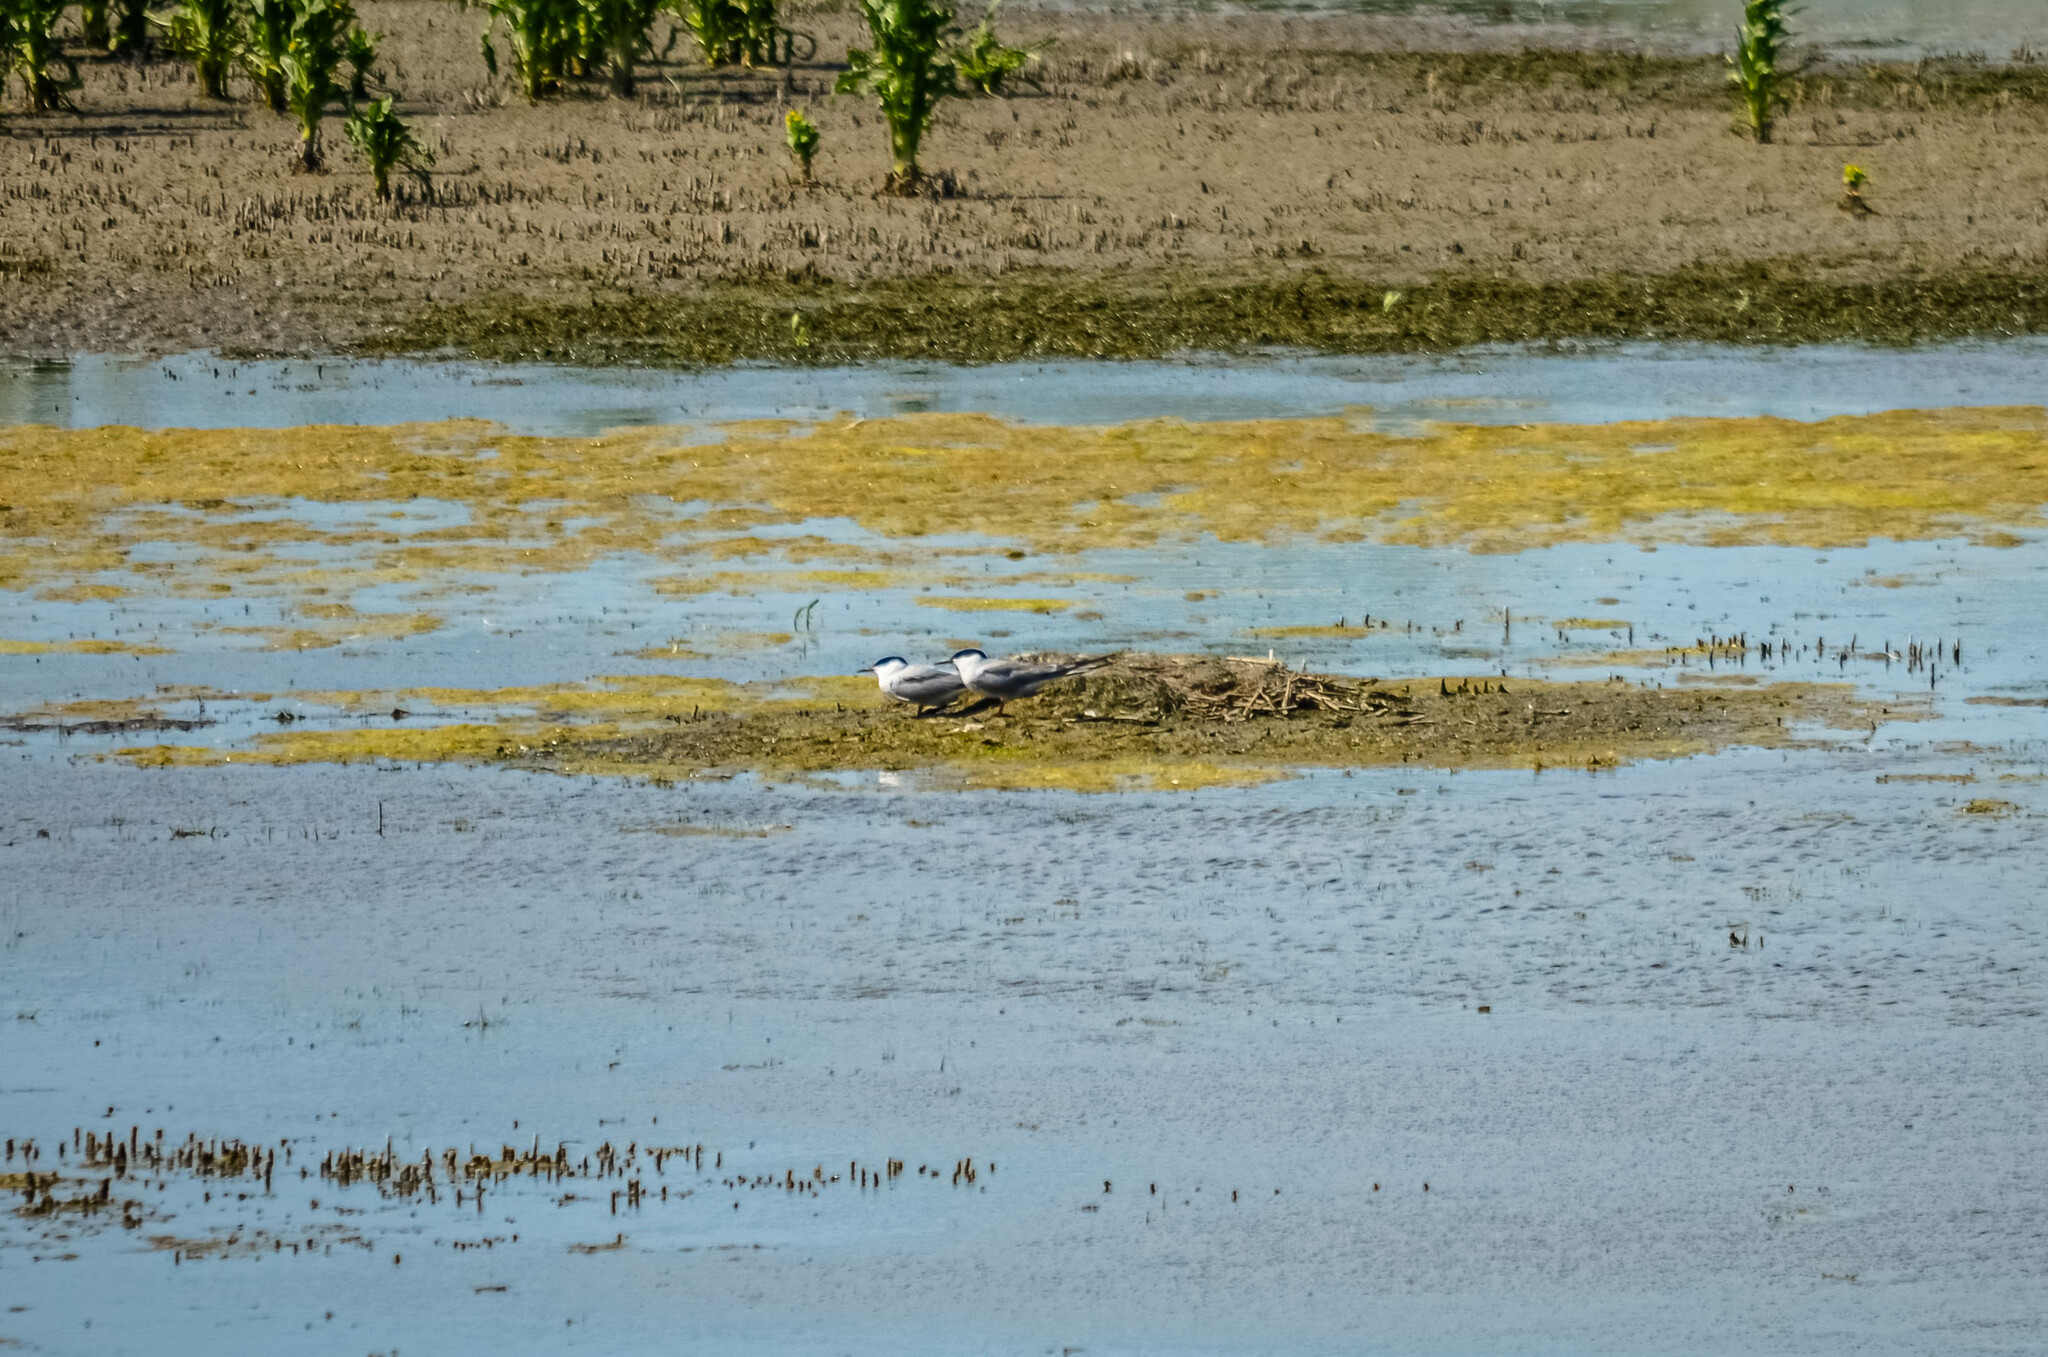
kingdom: Animalia
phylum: Chordata
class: Aves
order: Charadriiformes
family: Laridae
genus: Sterna
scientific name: Sterna hirundo
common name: Common tern
